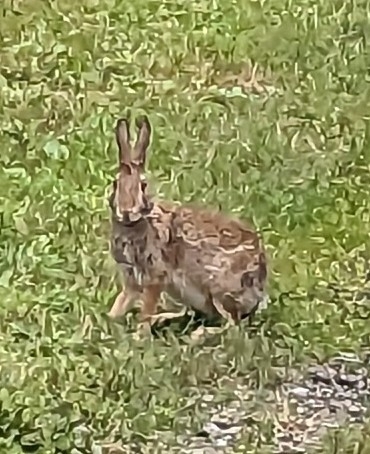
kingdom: Animalia
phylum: Chordata
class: Mammalia
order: Lagomorpha
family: Leporidae
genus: Sylvilagus
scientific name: Sylvilagus floridanus
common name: Eastern cottontail
